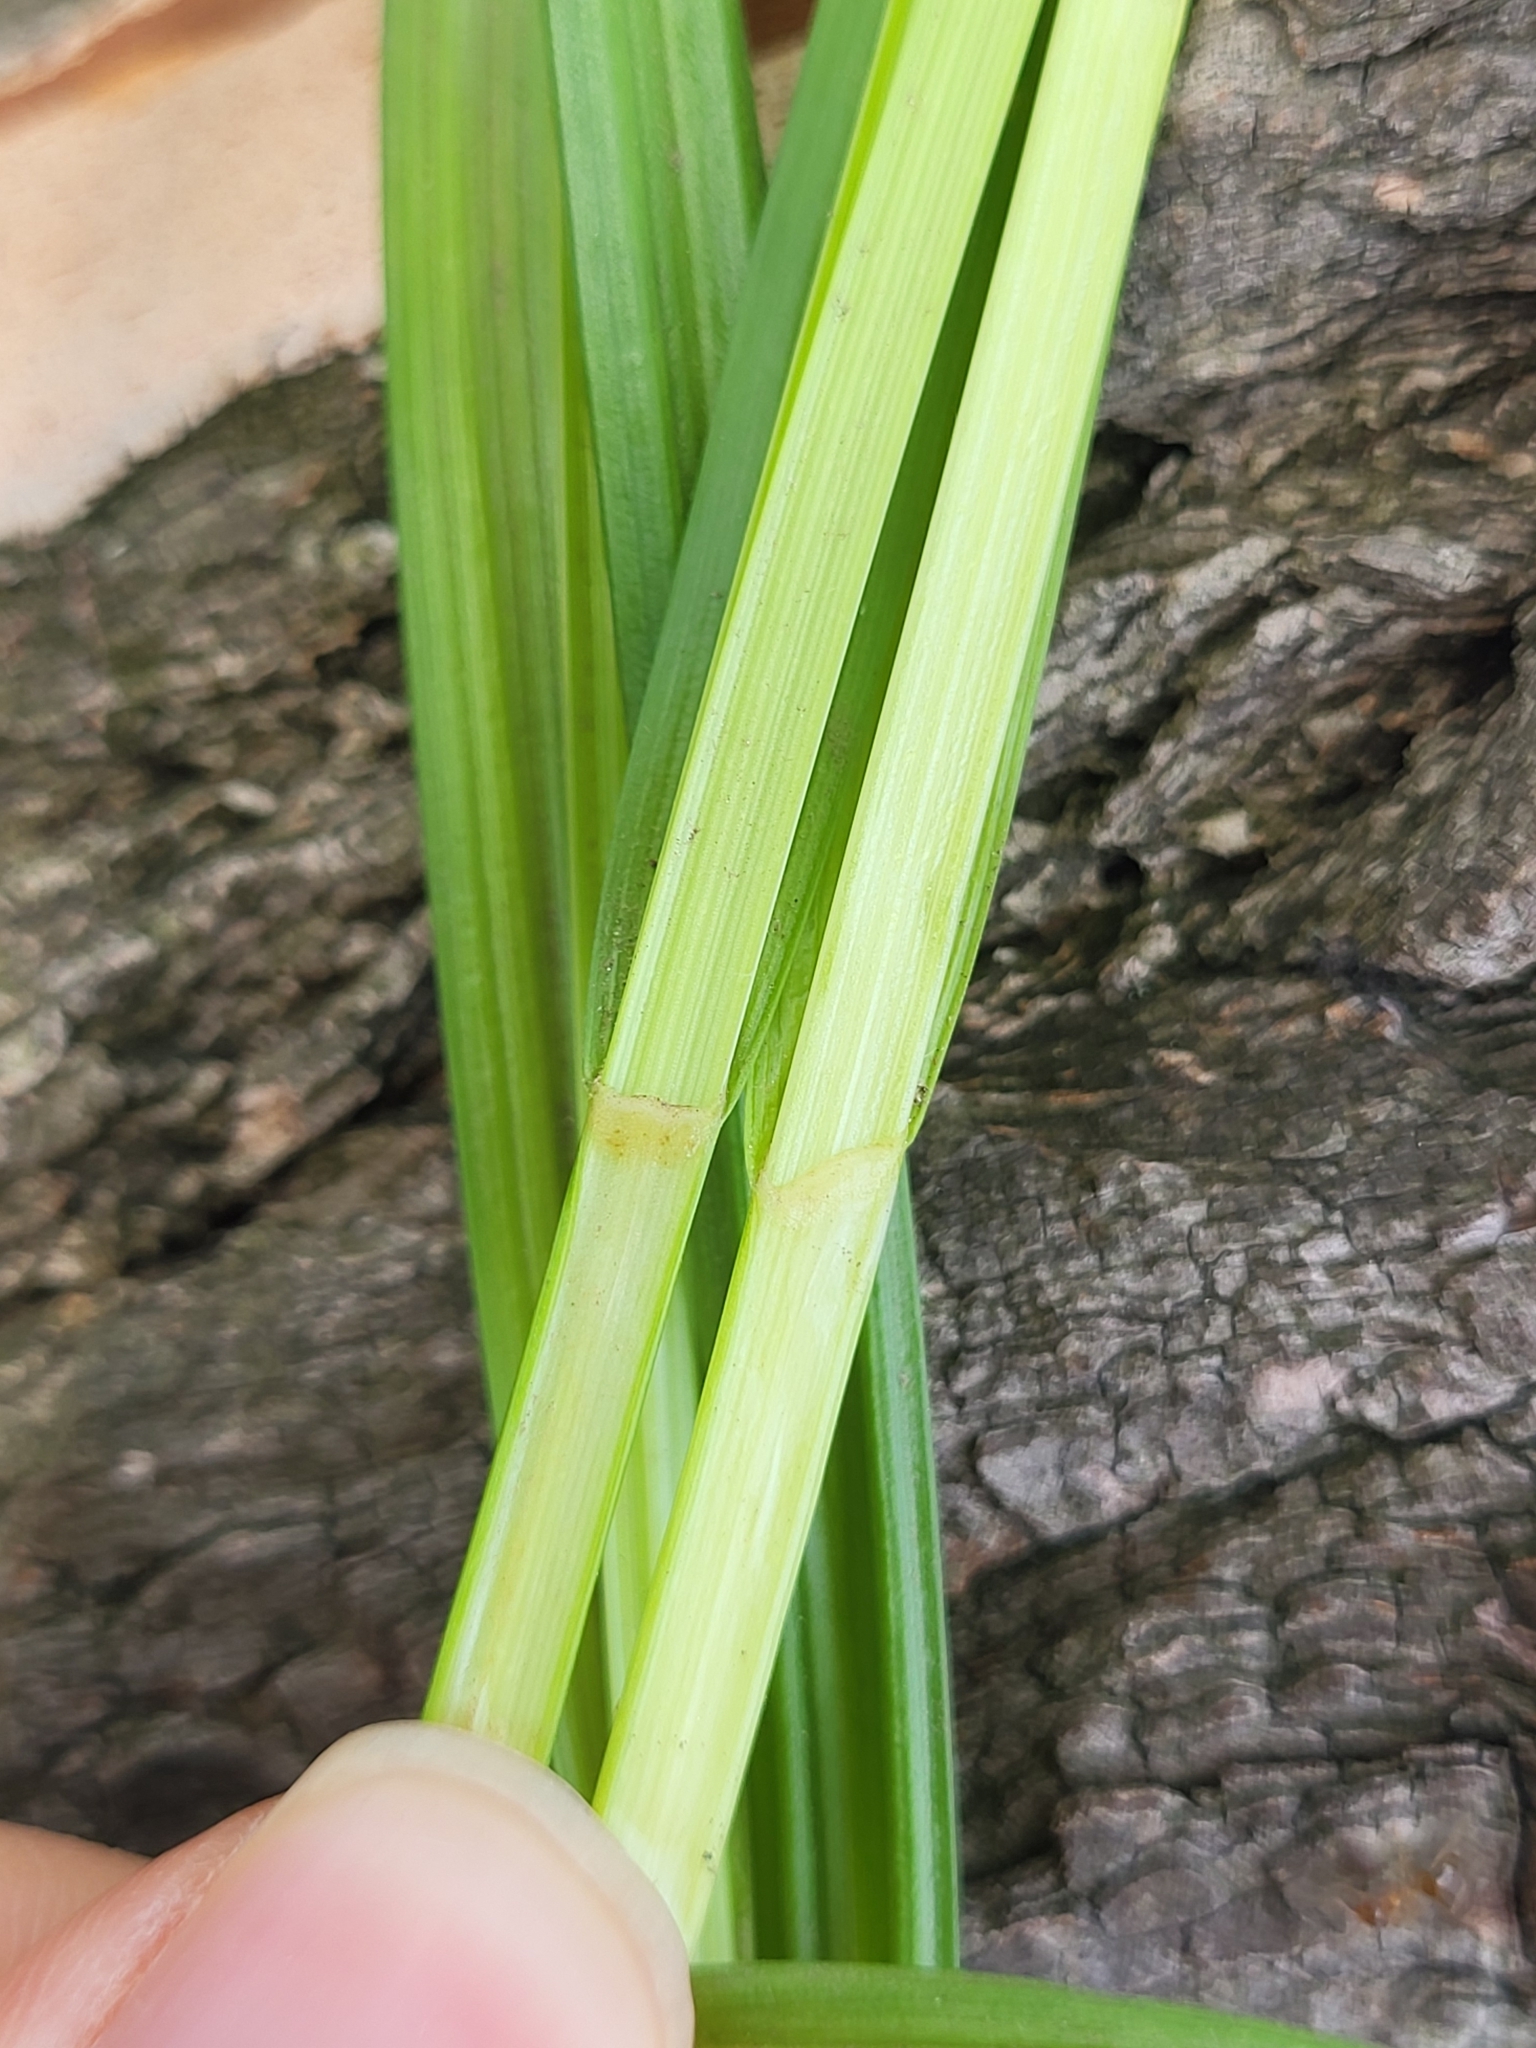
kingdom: Plantae
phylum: Tracheophyta
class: Liliopsida
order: Poales
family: Cyperaceae
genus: Carex
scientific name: Carex laevivaginata
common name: Smooth-sheathed fox sedge
